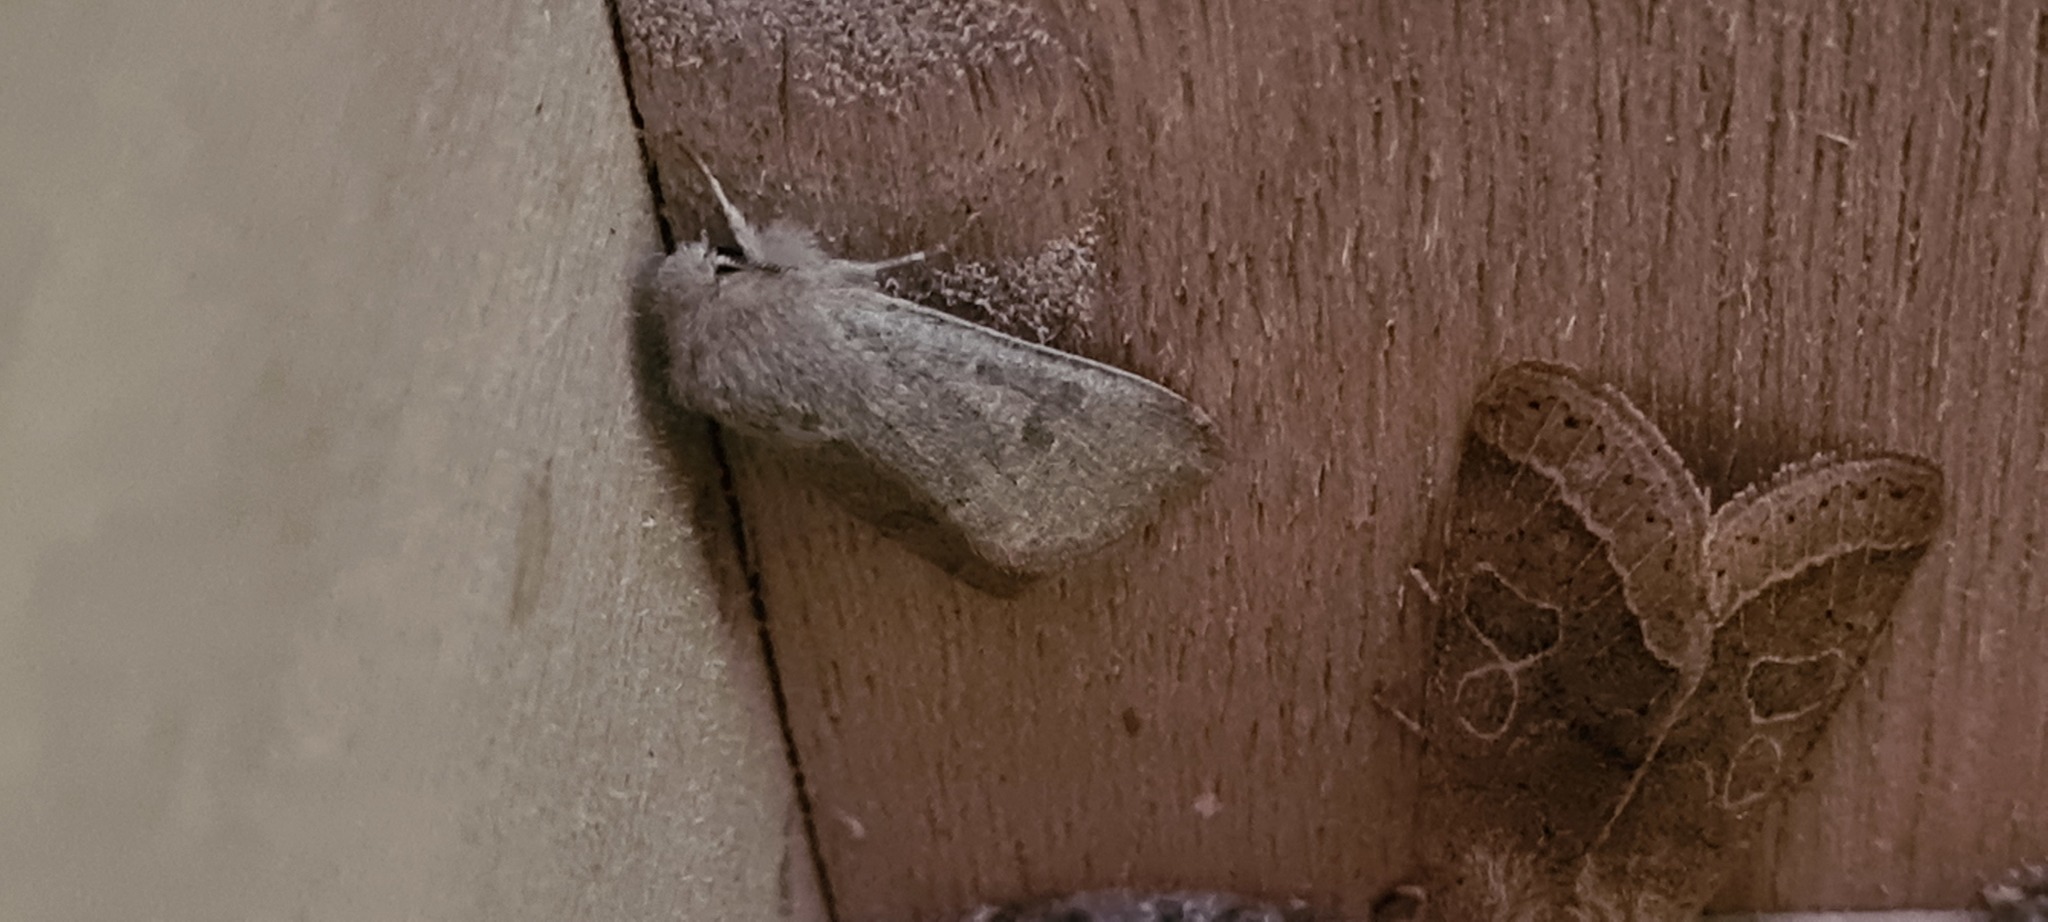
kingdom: Animalia
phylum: Arthropoda
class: Insecta
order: Lepidoptera
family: Noctuidae
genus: Orthosia
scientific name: Orthosia cruda
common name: Small quaker
